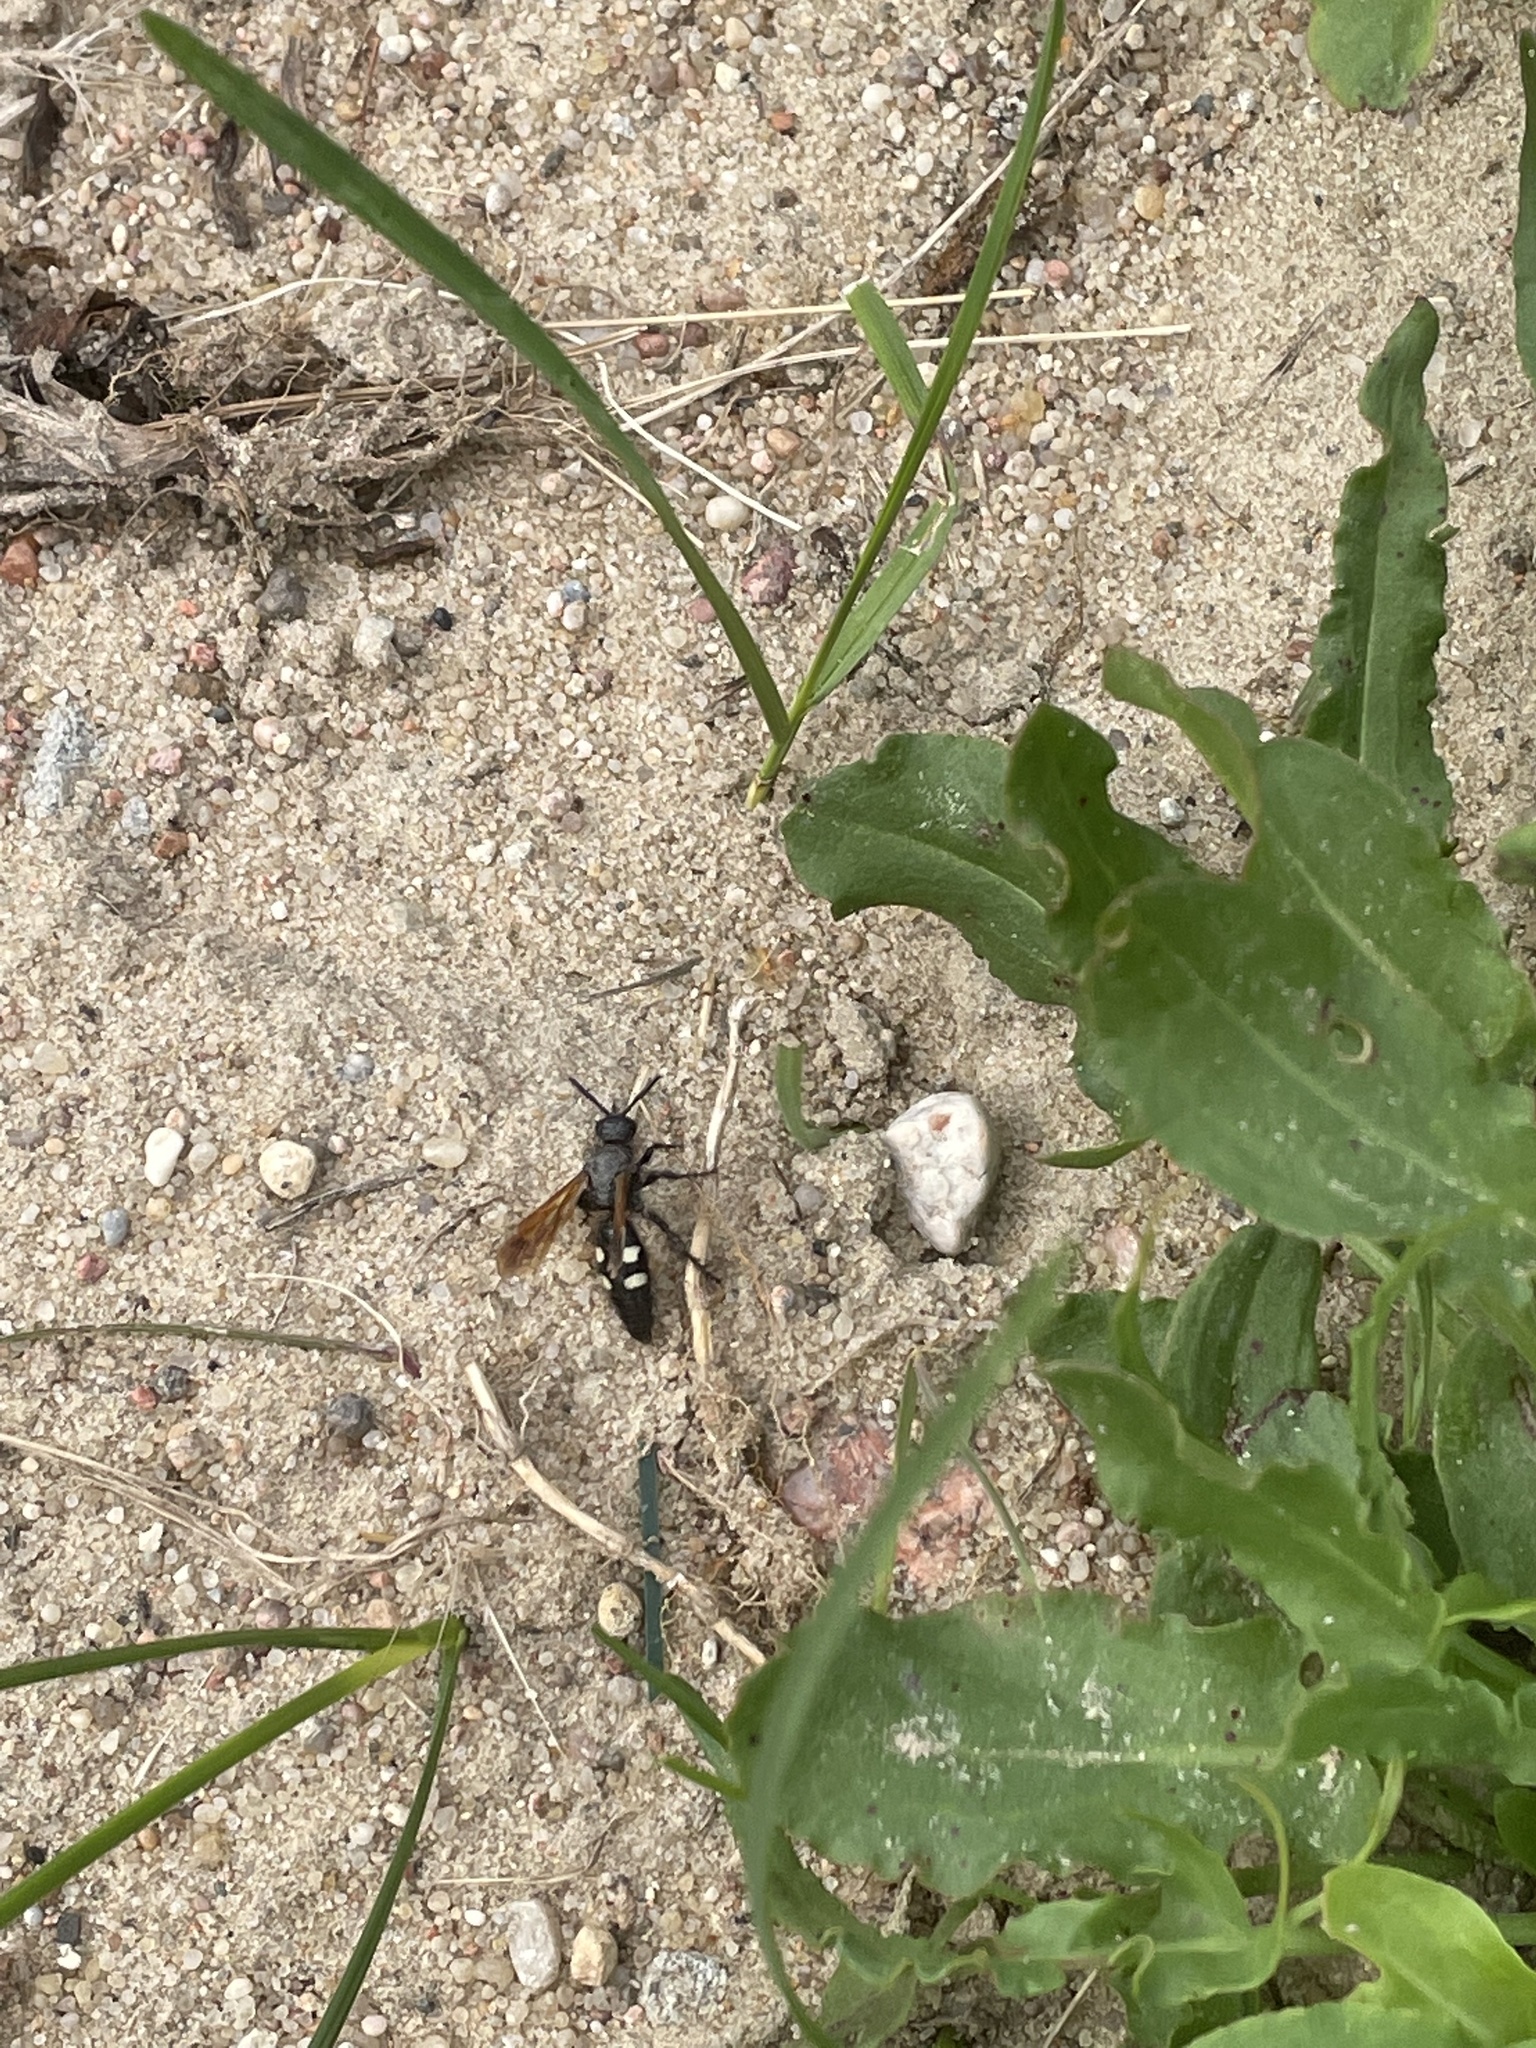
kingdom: Animalia
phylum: Arthropoda
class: Insecta
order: Hymenoptera
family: Vespidae
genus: Vespa
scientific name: Vespa sexmaculata
